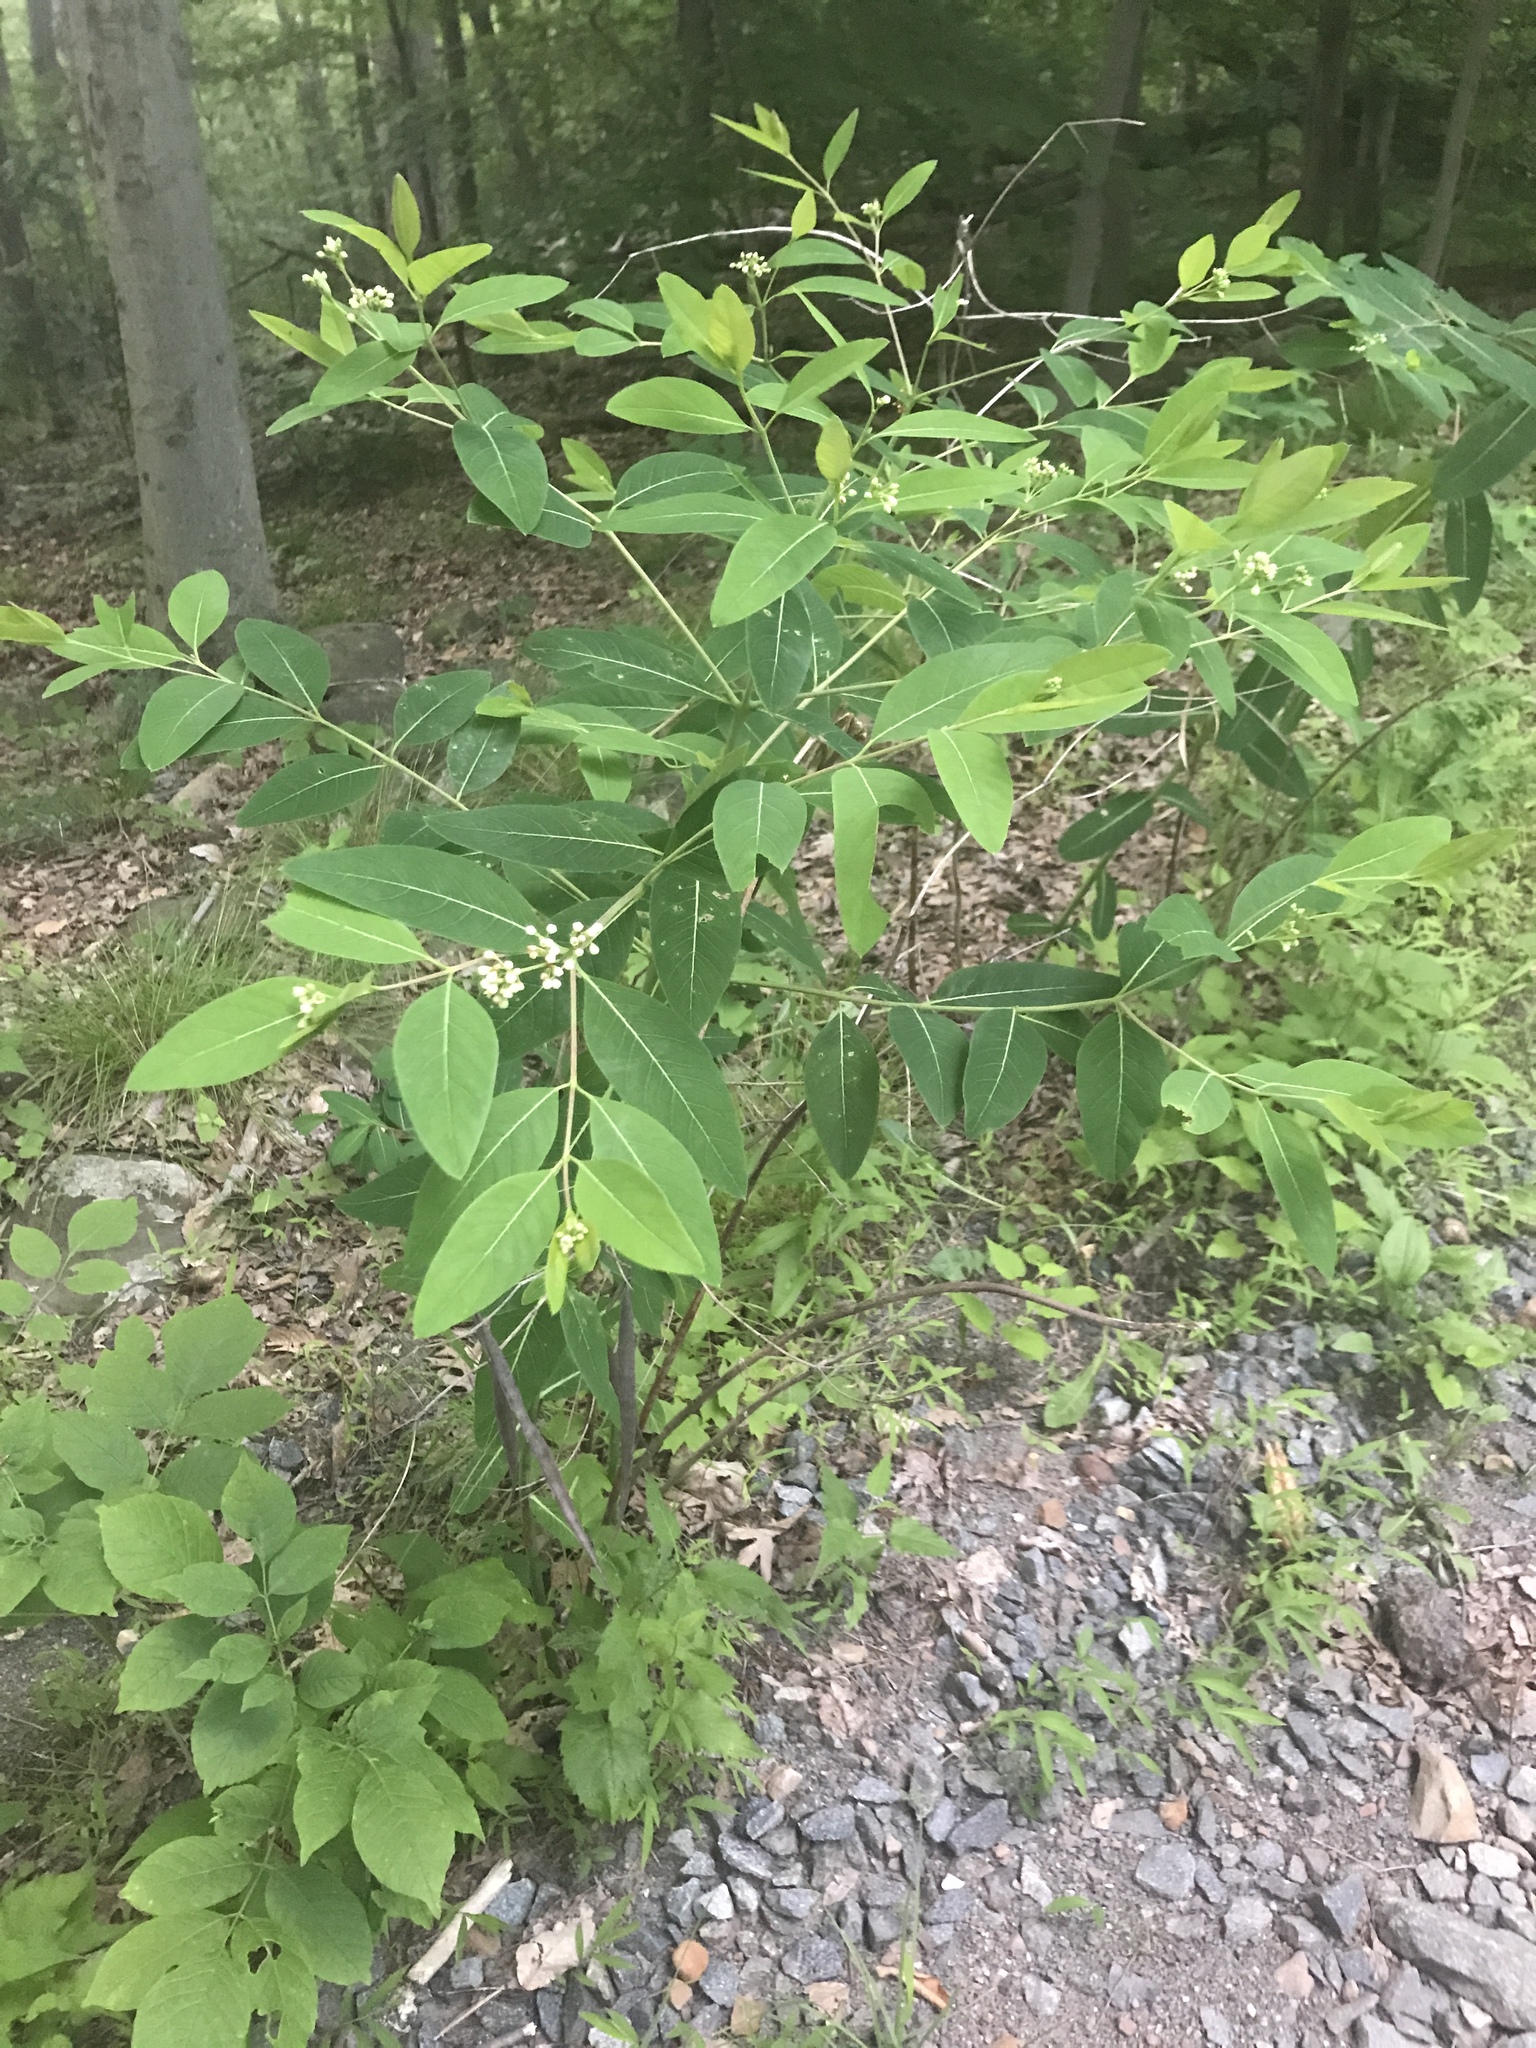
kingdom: Plantae
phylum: Tracheophyta
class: Magnoliopsida
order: Gentianales
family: Apocynaceae
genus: Apocynum
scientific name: Apocynum cannabinum
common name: Hemp dogbane
